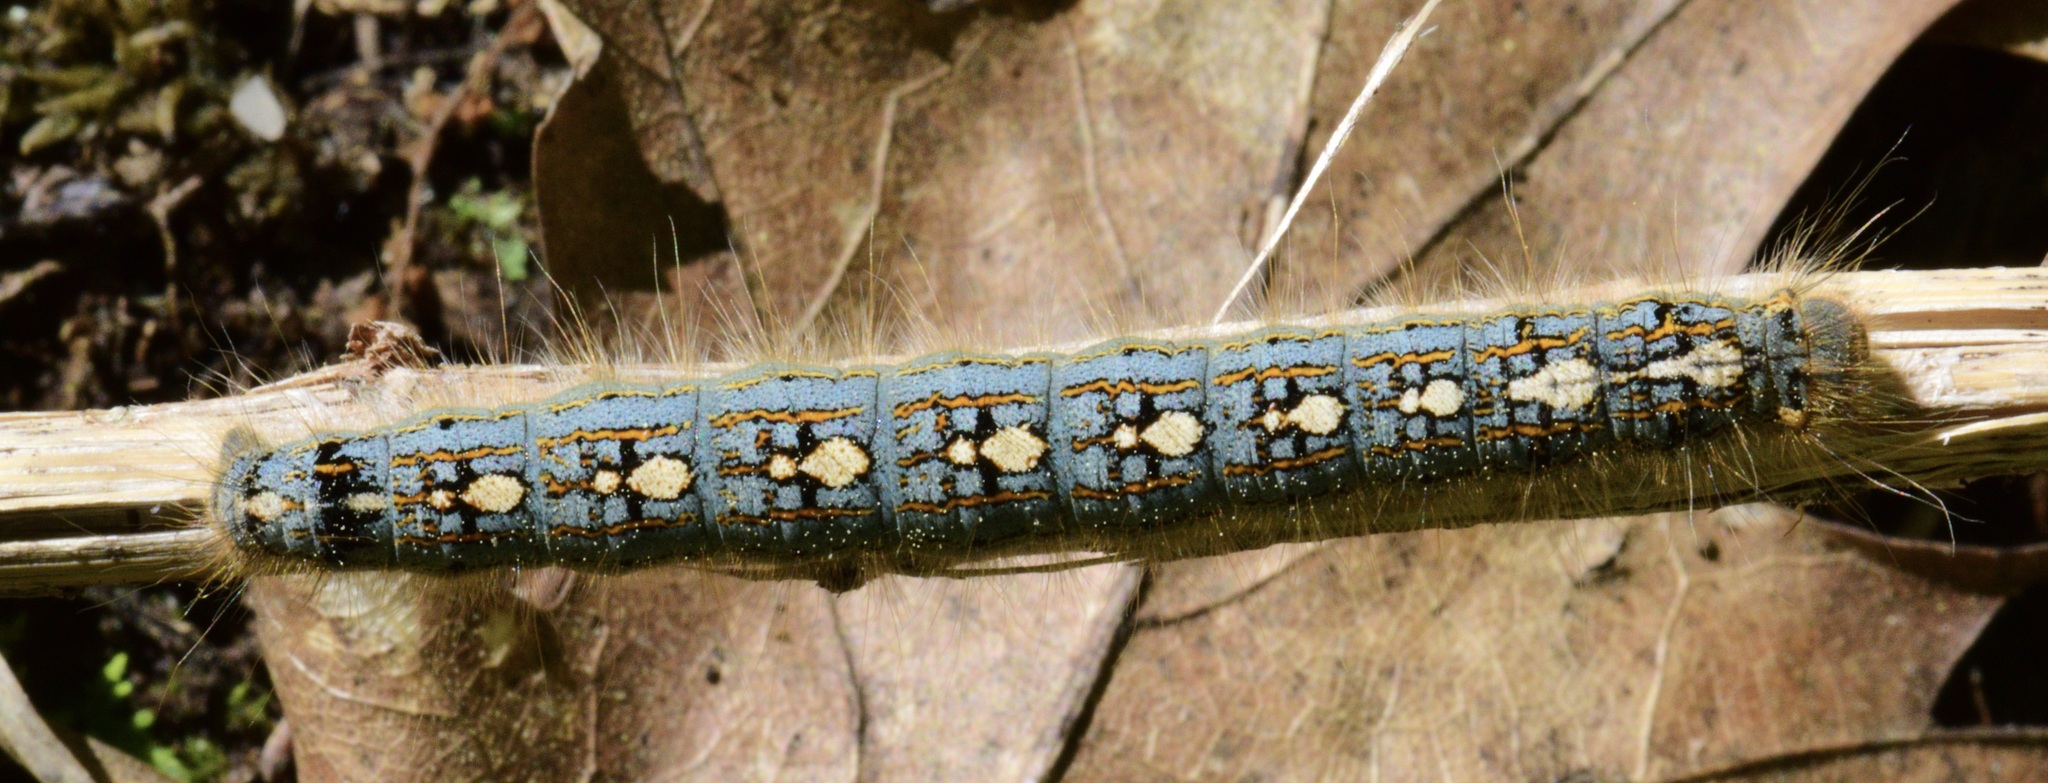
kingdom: Animalia
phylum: Arthropoda
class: Insecta
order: Lepidoptera
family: Lasiocampidae
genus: Malacosoma
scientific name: Malacosoma disstria
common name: Forest tent caterpillar
